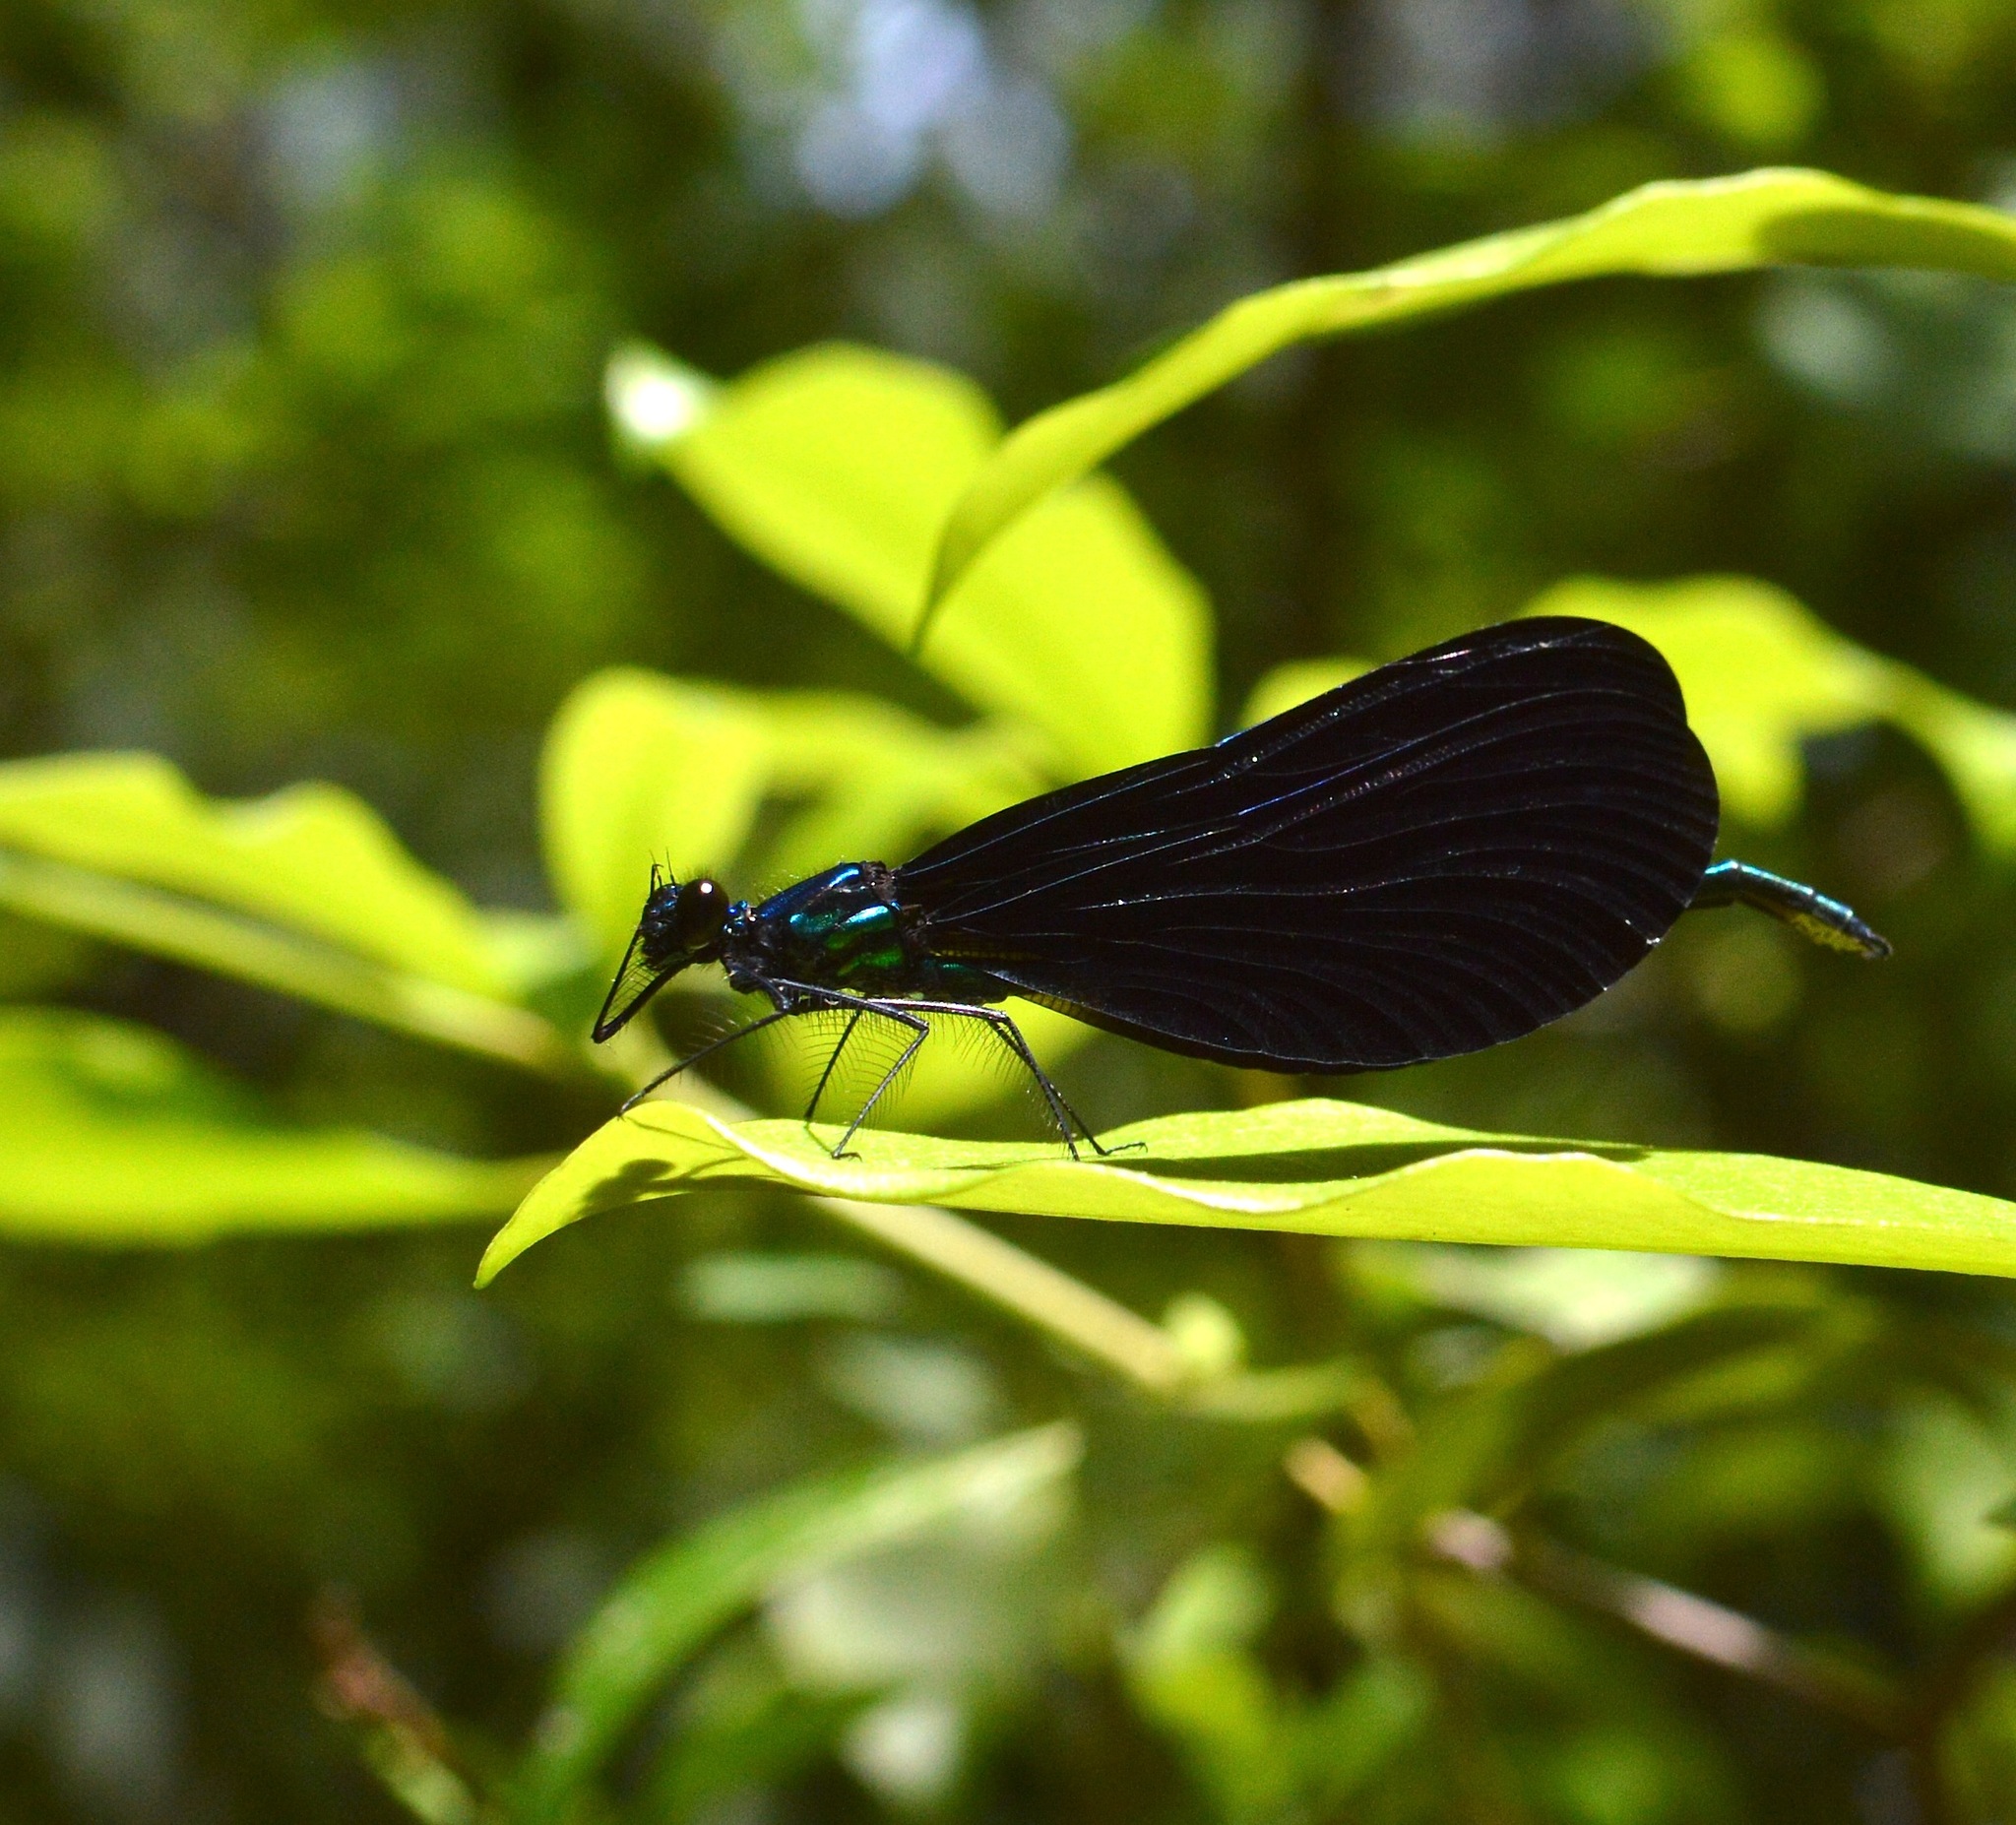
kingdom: Animalia
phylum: Arthropoda
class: Insecta
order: Odonata
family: Calopterygidae
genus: Calopteryx
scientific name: Calopteryx maculata
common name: Ebony jewelwing
